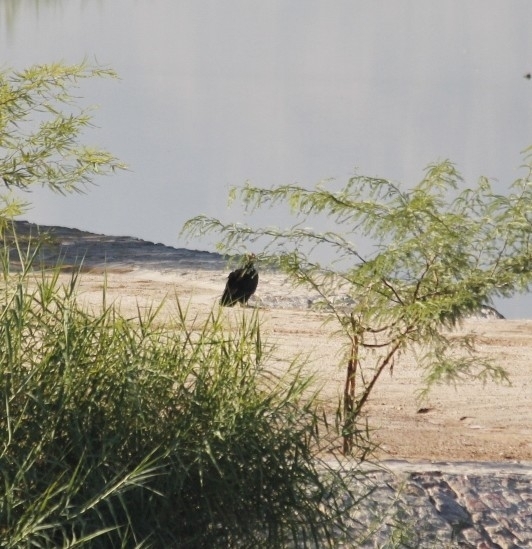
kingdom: Animalia
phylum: Chordata
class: Aves
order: Accipitriformes
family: Cathartidae
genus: Cathartes
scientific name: Cathartes aura
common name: Turkey vulture
